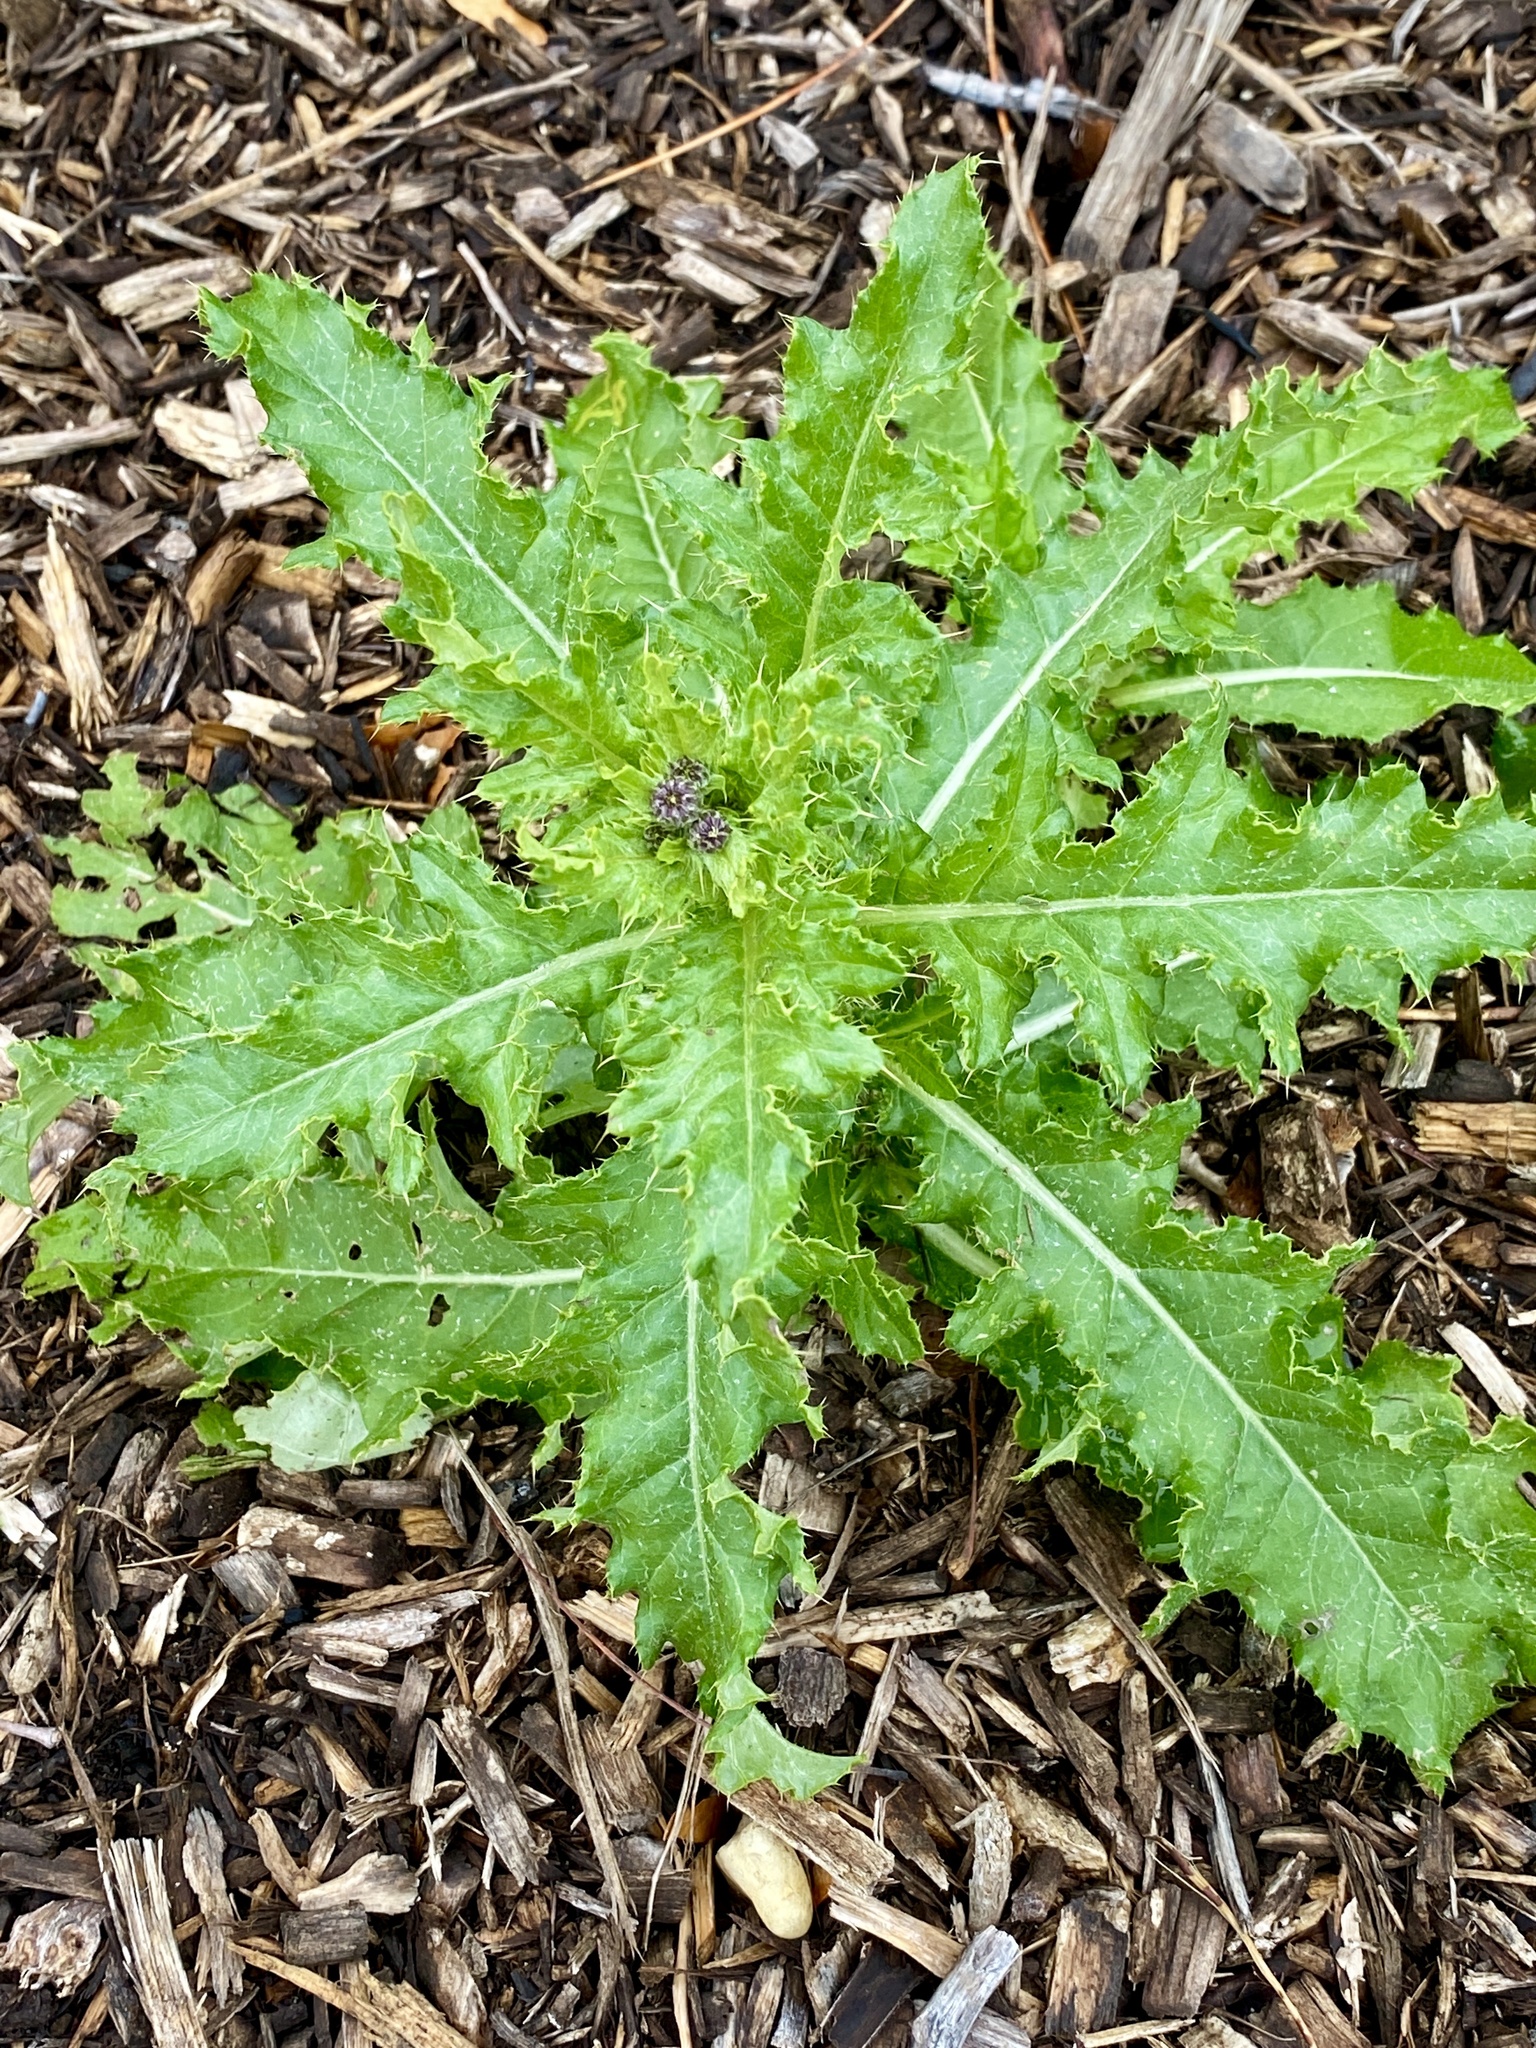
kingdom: Plantae
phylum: Tracheophyta
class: Magnoliopsida
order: Asterales
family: Asteraceae
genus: Cirsium
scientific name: Cirsium arvense
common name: Creeping thistle
